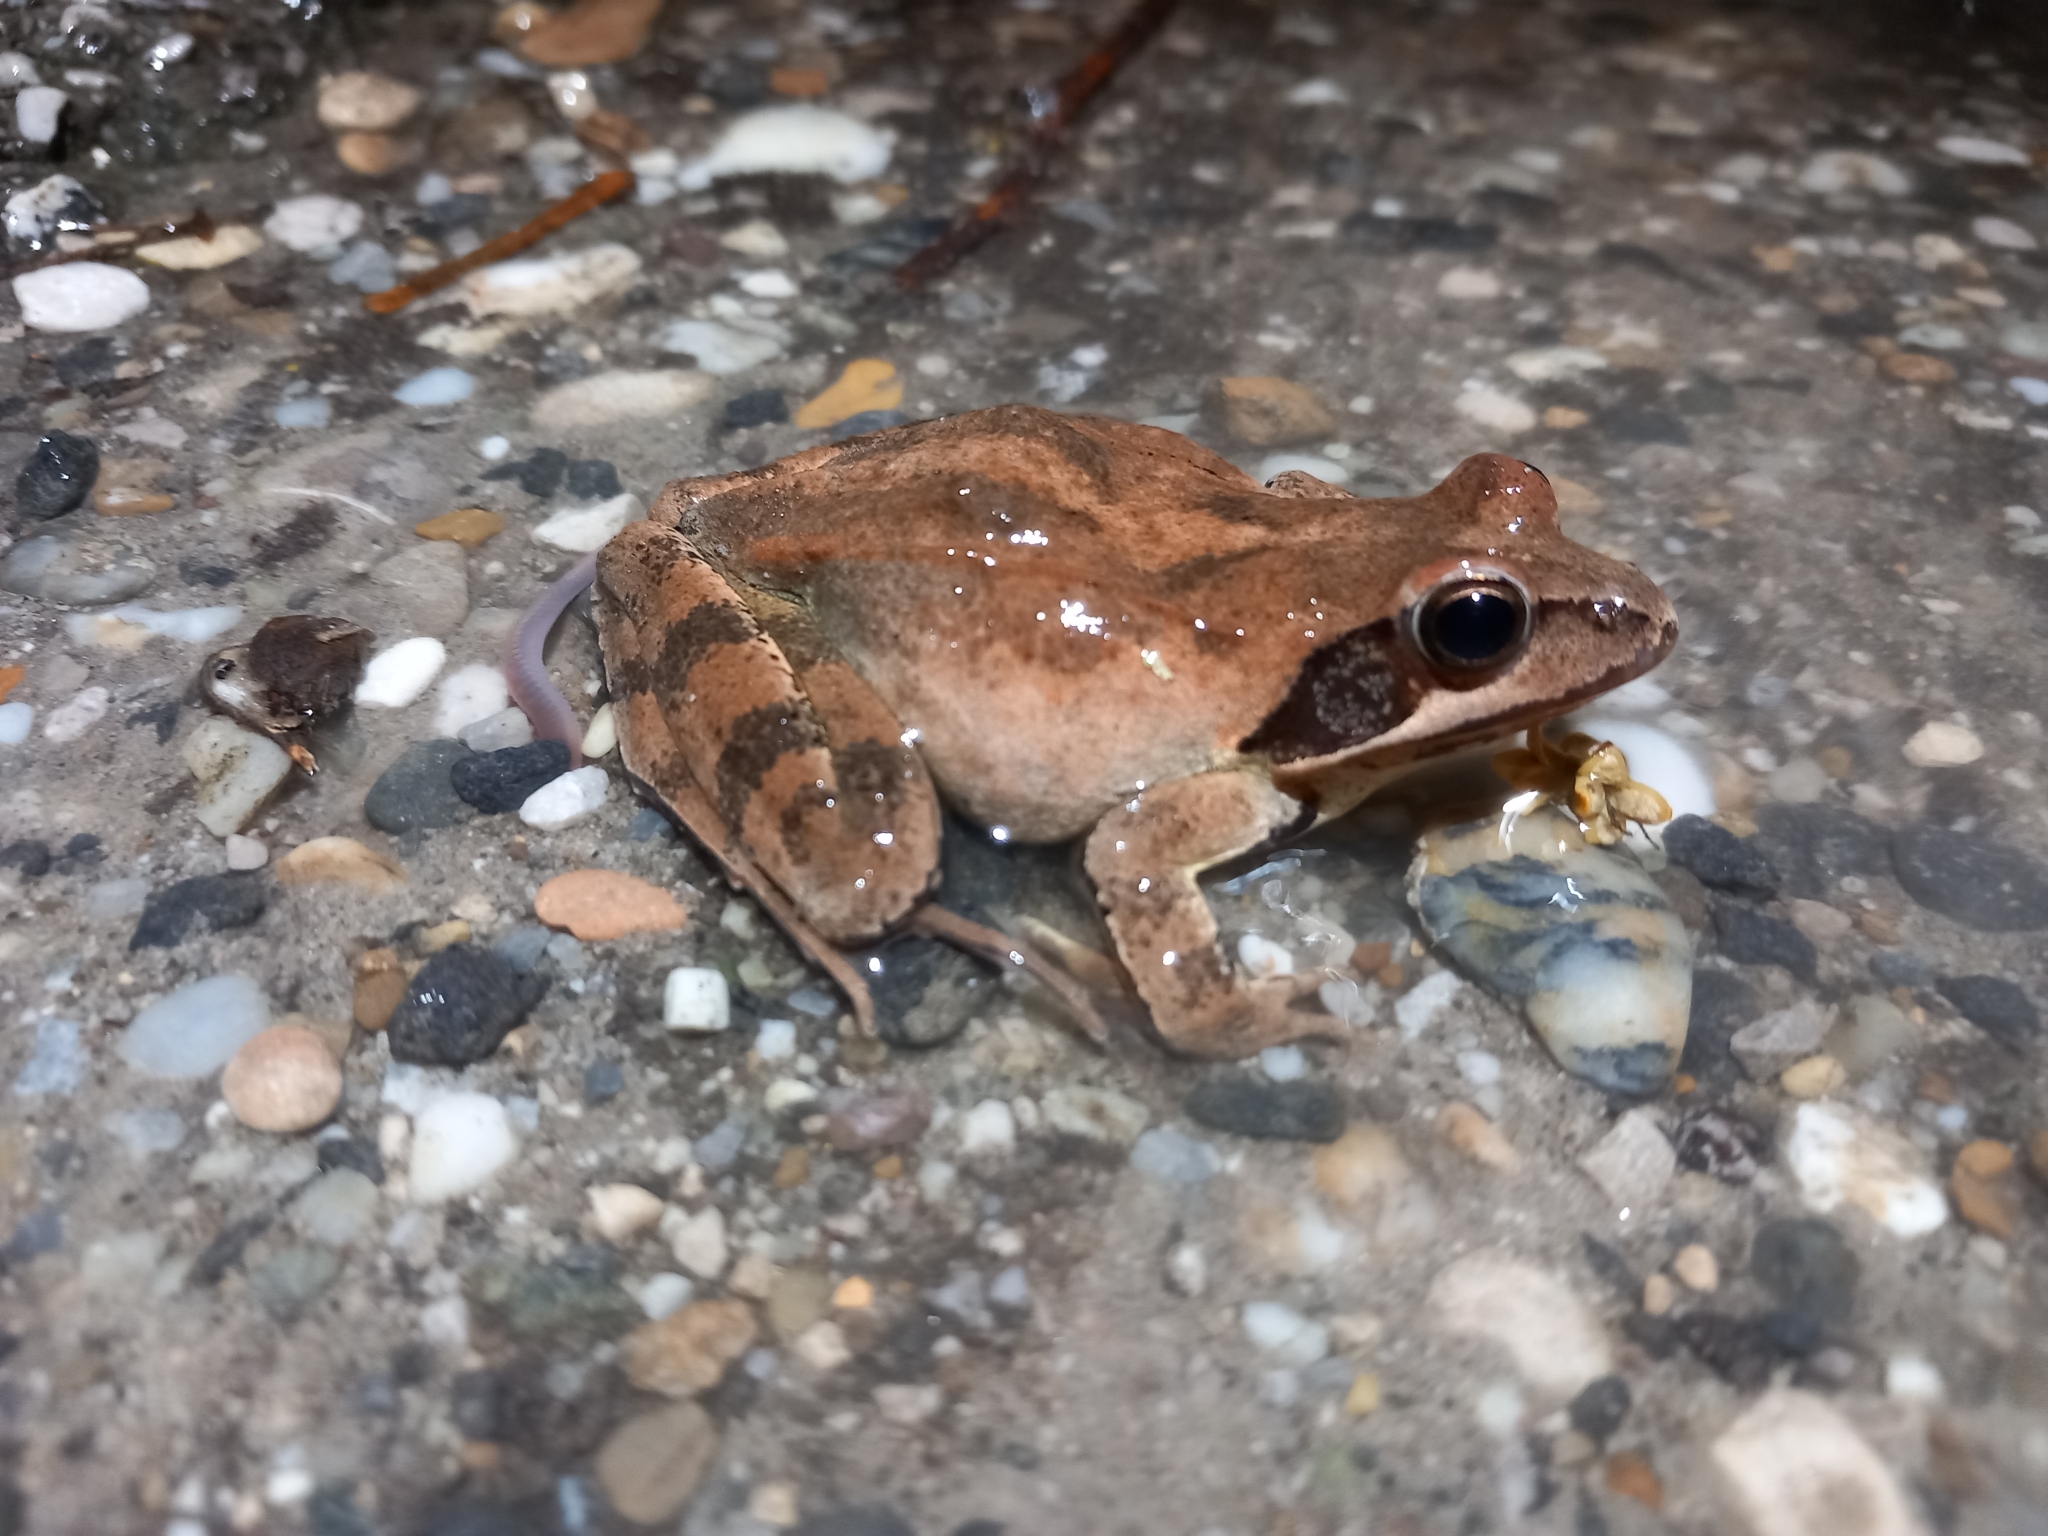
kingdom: Animalia
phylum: Chordata
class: Amphibia
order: Anura
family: Ranidae
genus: Rana
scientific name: Rana dalmatina
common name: Agile frog
